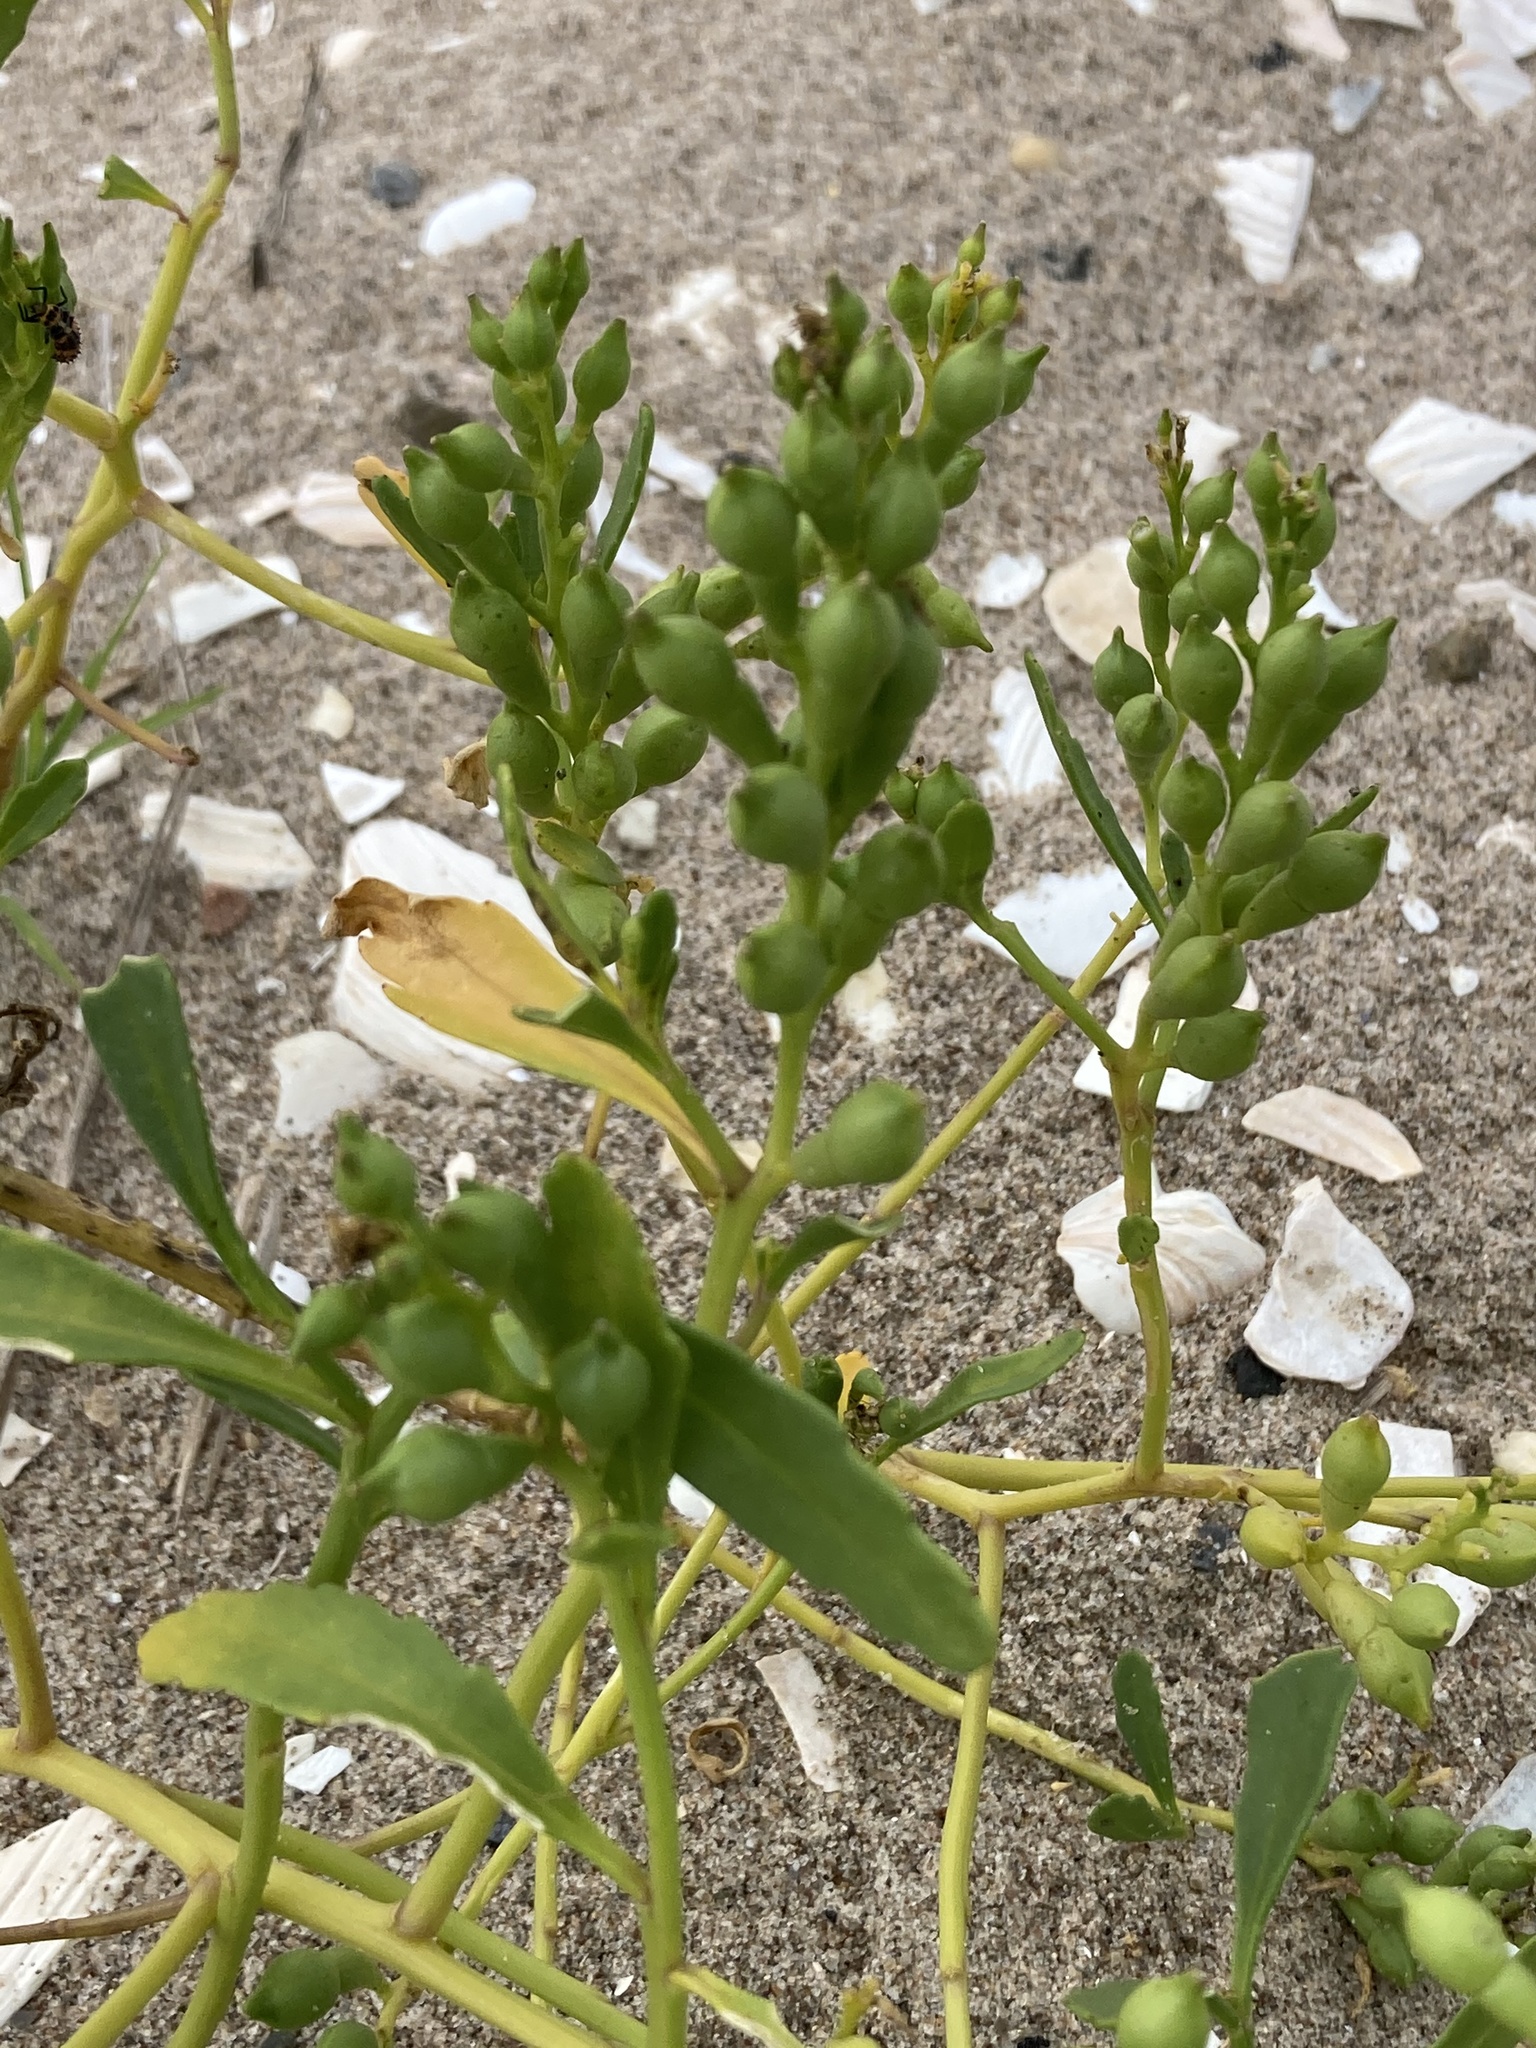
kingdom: Plantae
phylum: Tracheophyta
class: Magnoliopsida
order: Brassicales
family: Brassicaceae
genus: Cakile
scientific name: Cakile edentula
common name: American sea rocket
